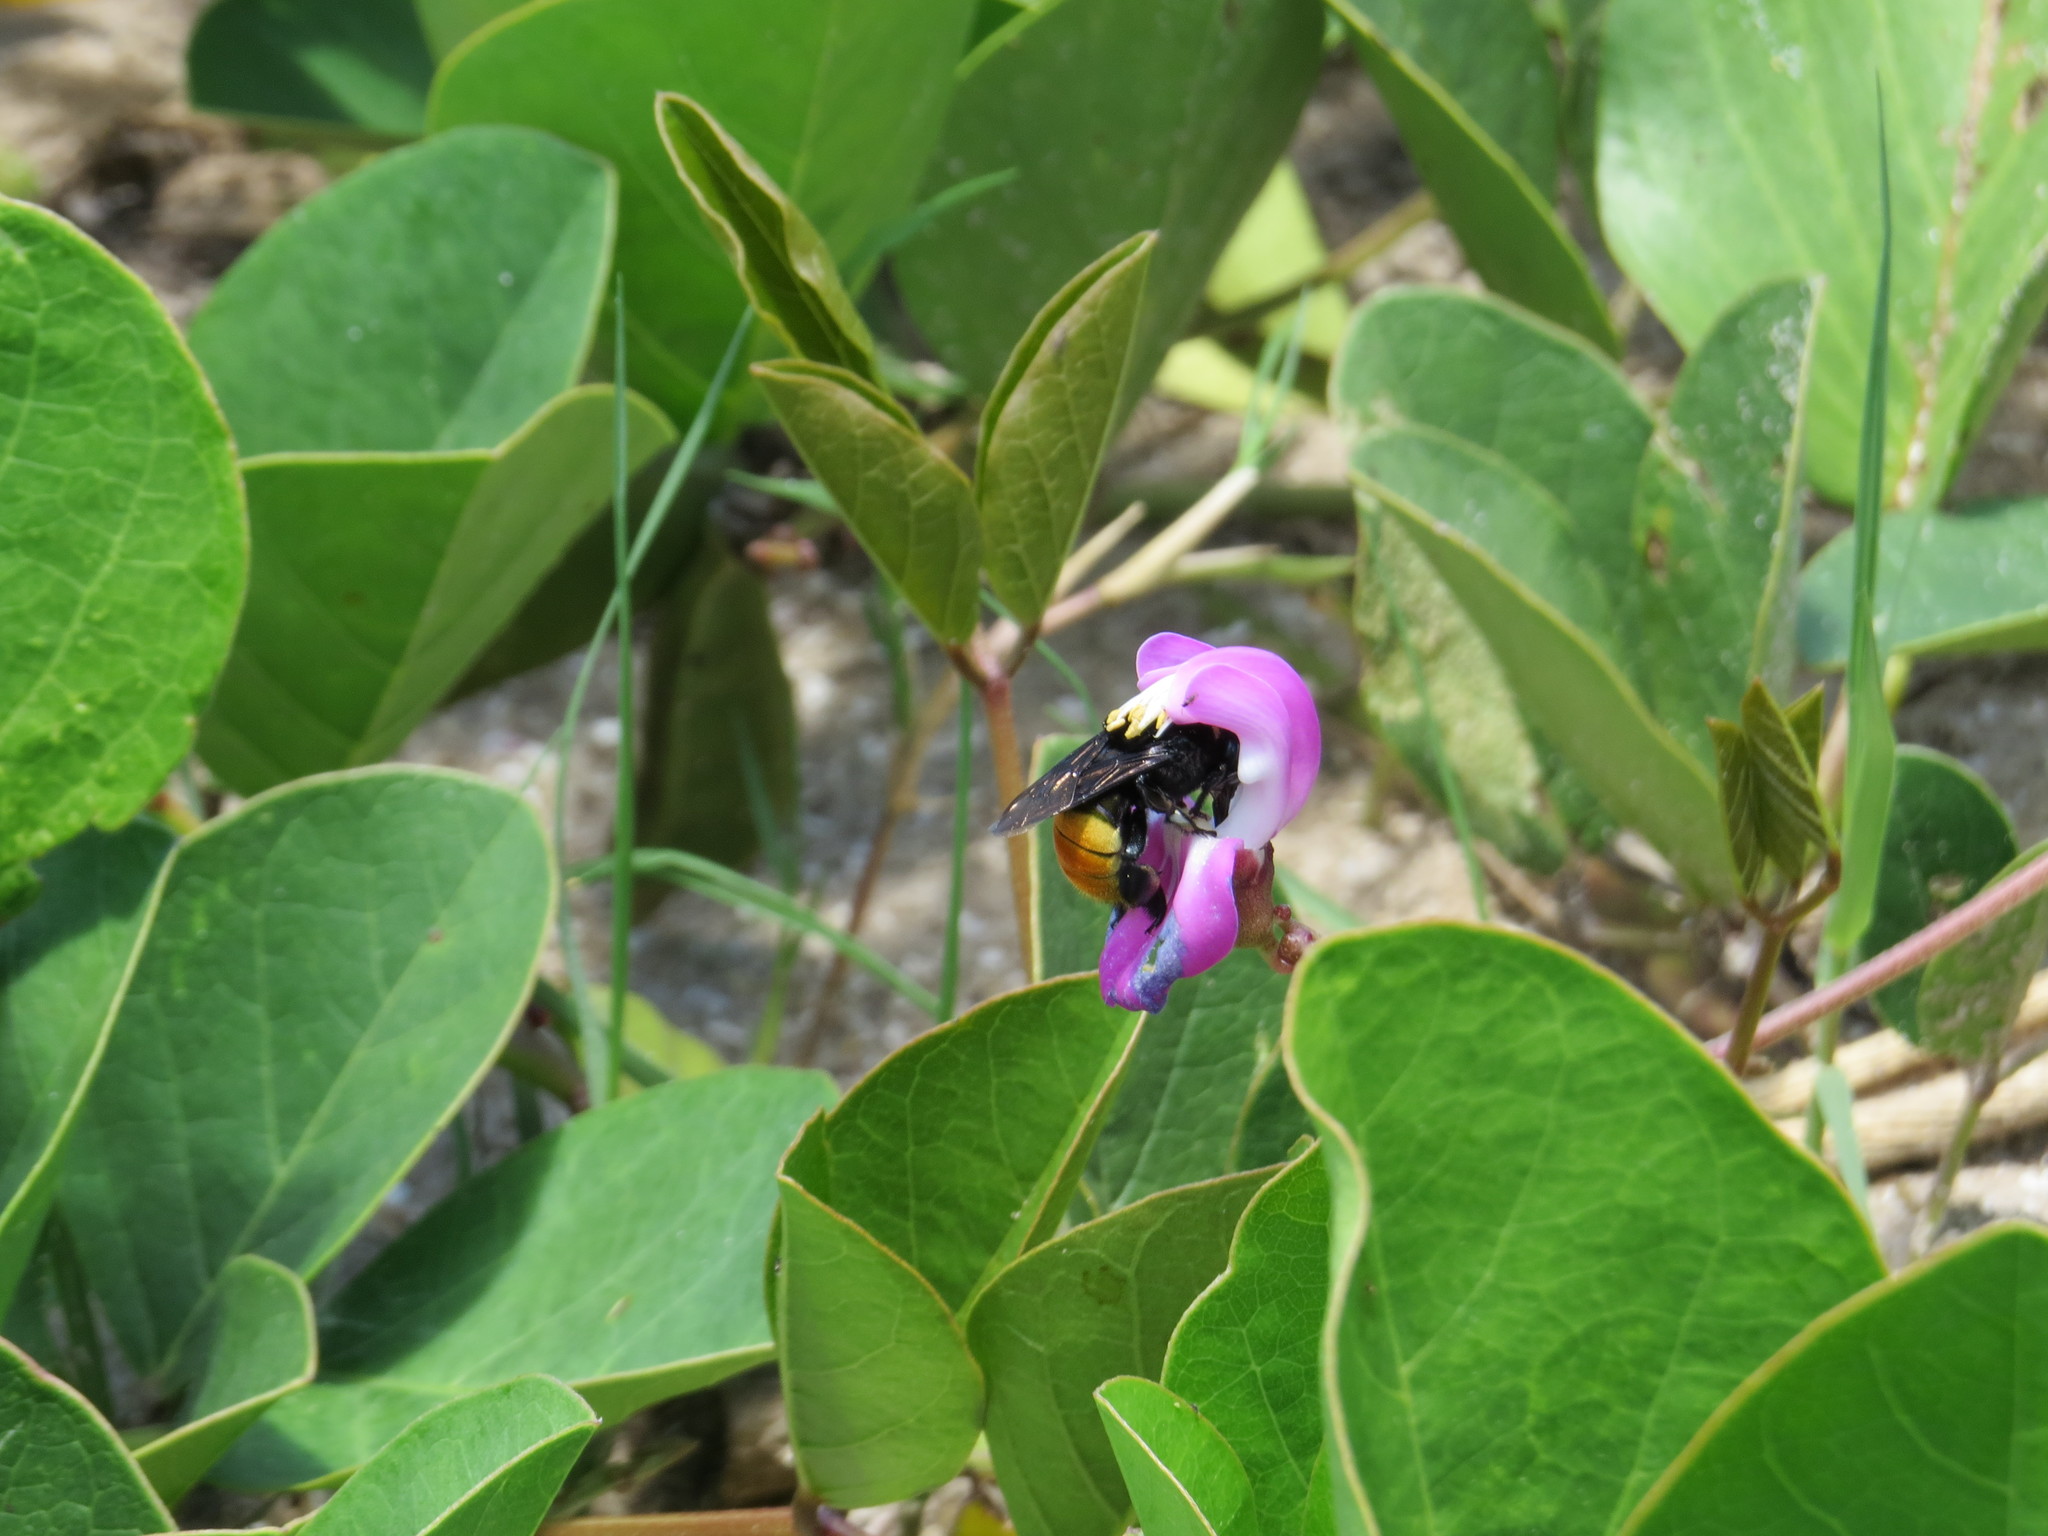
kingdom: Plantae
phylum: Tracheophyta
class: Magnoliopsida
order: Fabales
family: Fabaceae
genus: Canavalia
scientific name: Canavalia rosea
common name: Beach-bean
